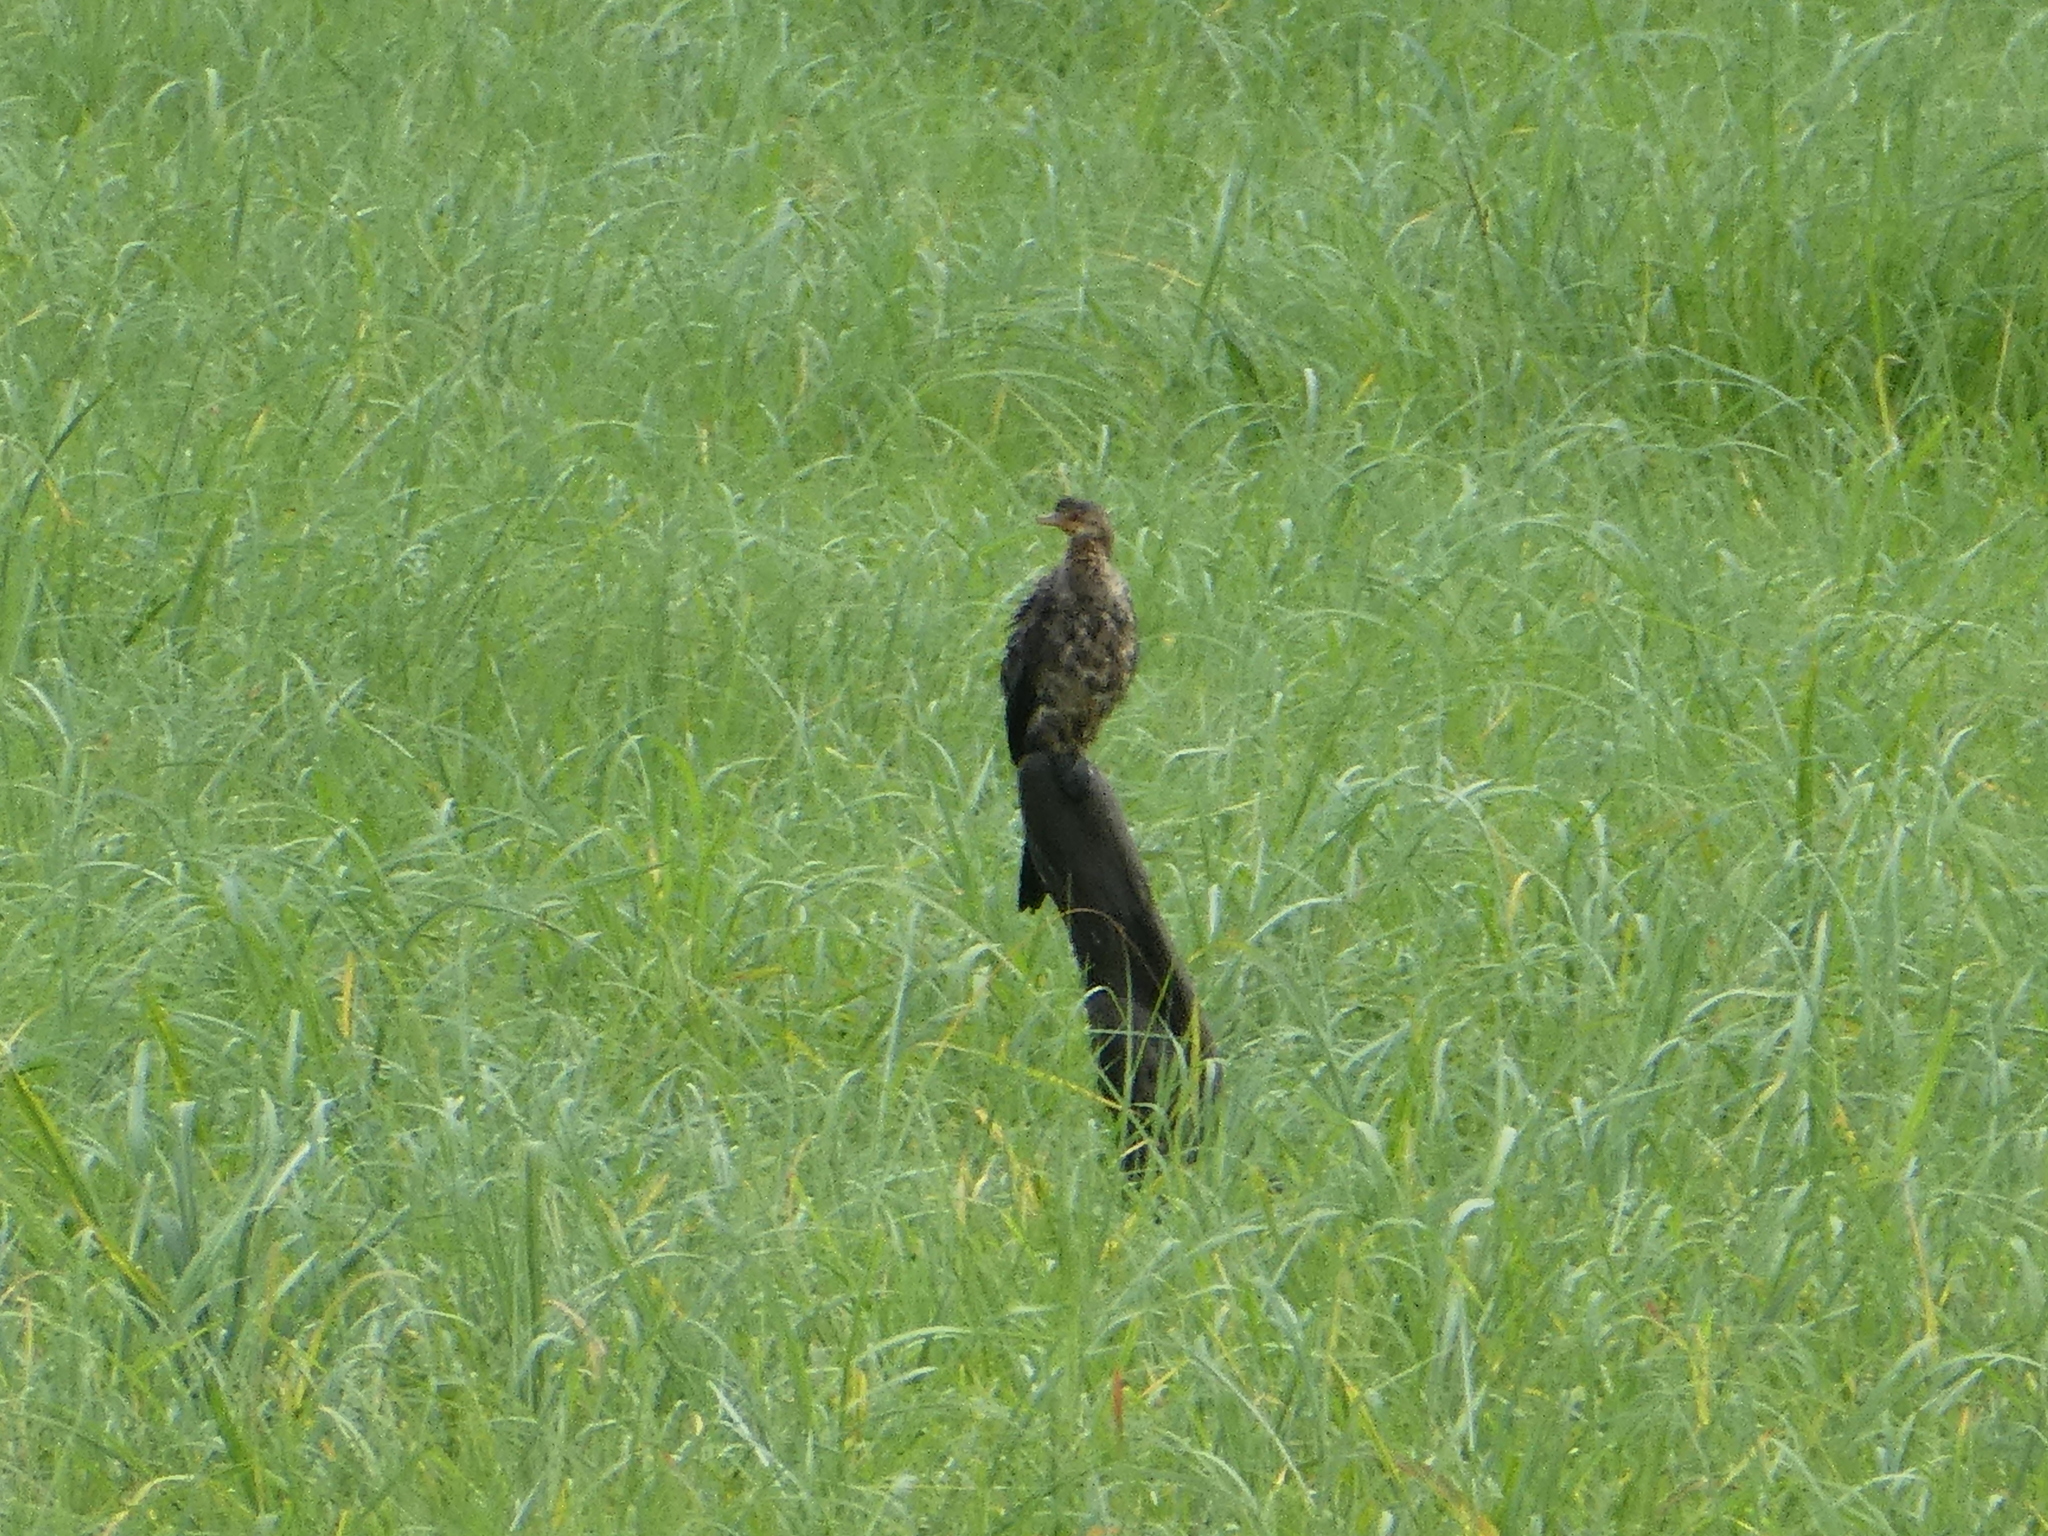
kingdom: Animalia
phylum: Chordata
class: Aves
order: Suliformes
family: Phalacrocoracidae
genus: Microcarbo
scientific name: Microcarbo africanus
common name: Long-tailed cormorant
